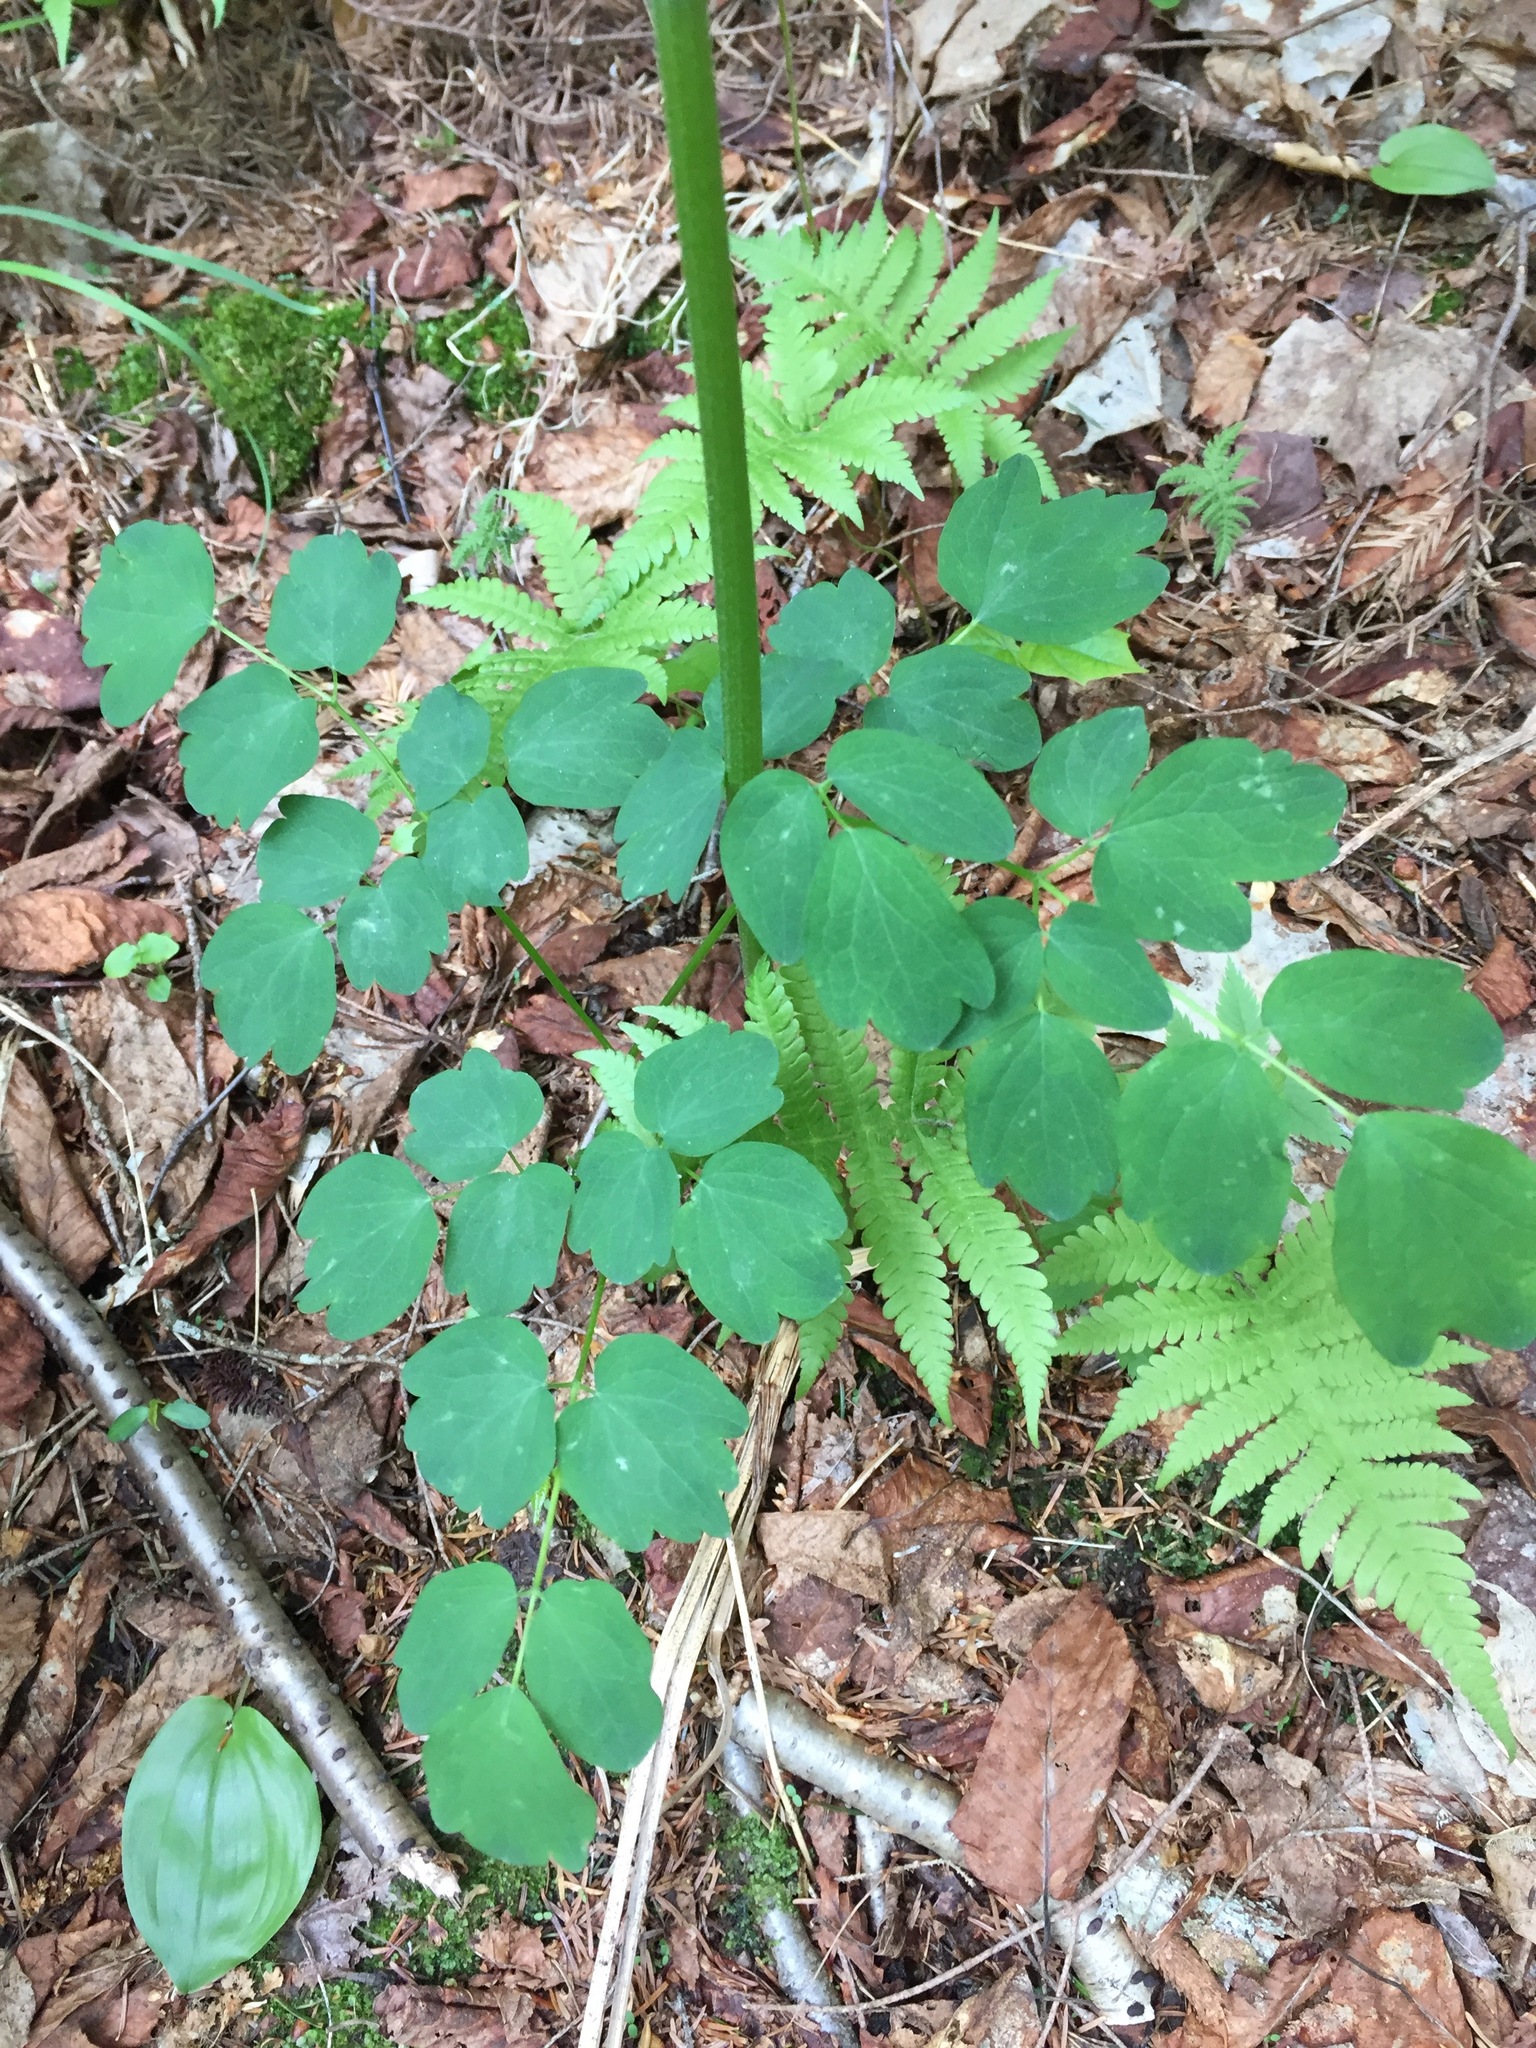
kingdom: Plantae
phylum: Tracheophyta
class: Magnoliopsida
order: Ranunculales
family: Ranunculaceae
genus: Thalictrum
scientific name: Thalictrum pubescens
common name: King-of-the-meadow
